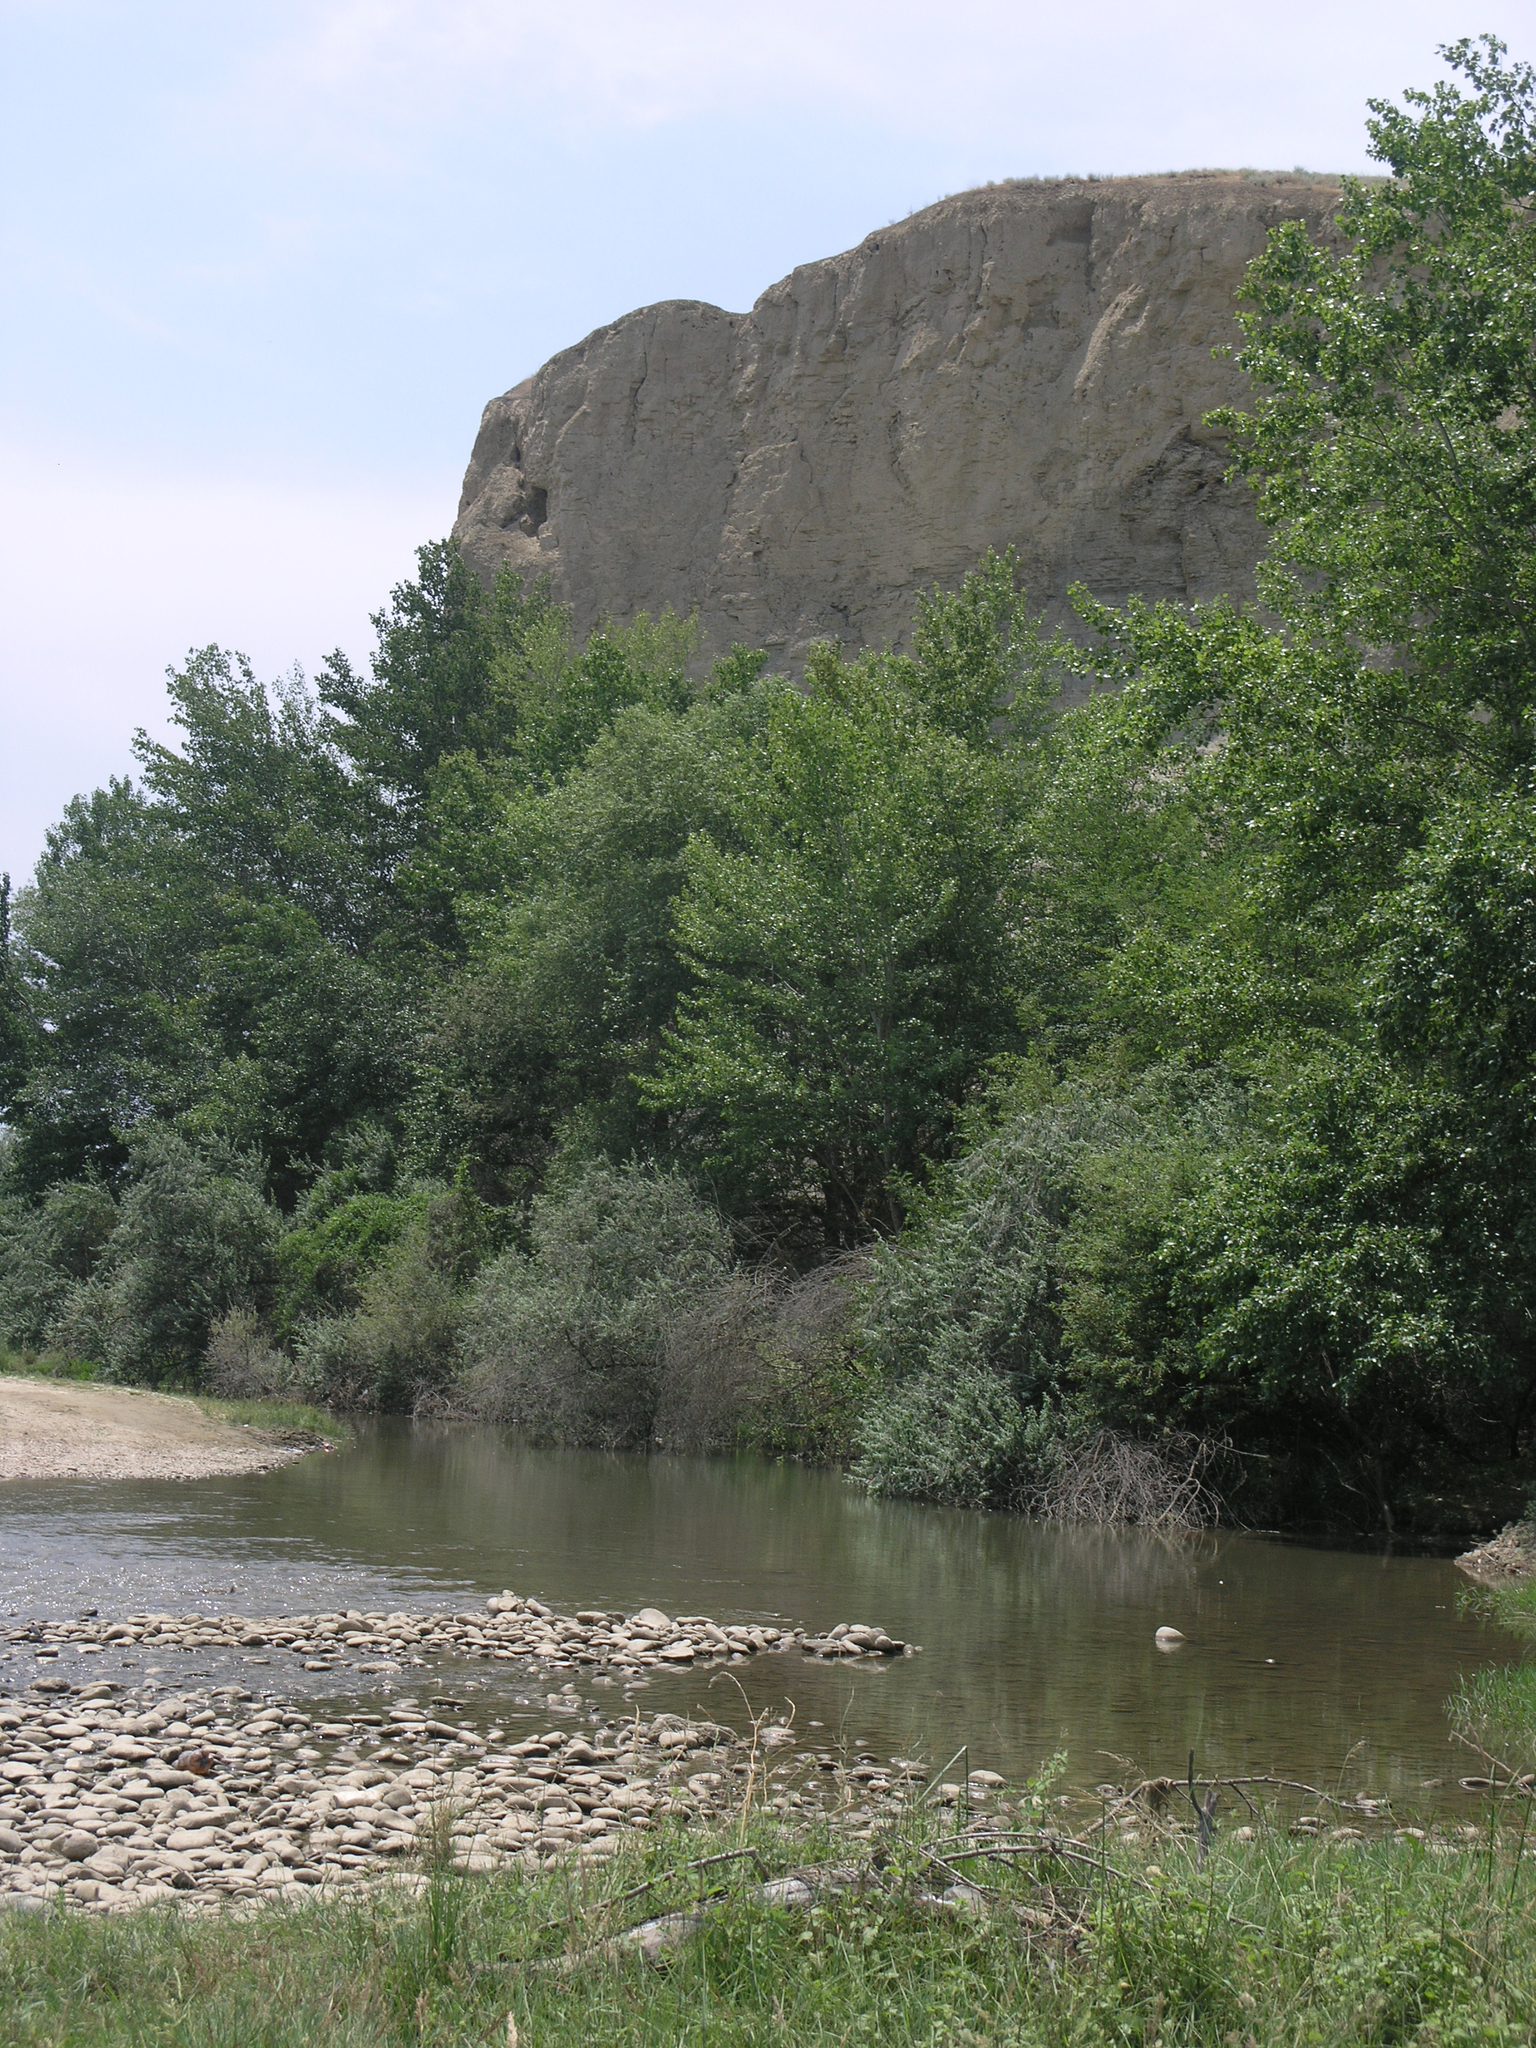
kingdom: Plantae
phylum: Tracheophyta
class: Magnoliopsida
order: Malpighiales
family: Salicaceae
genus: Populus
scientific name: Populus nigra
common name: Black poplar
